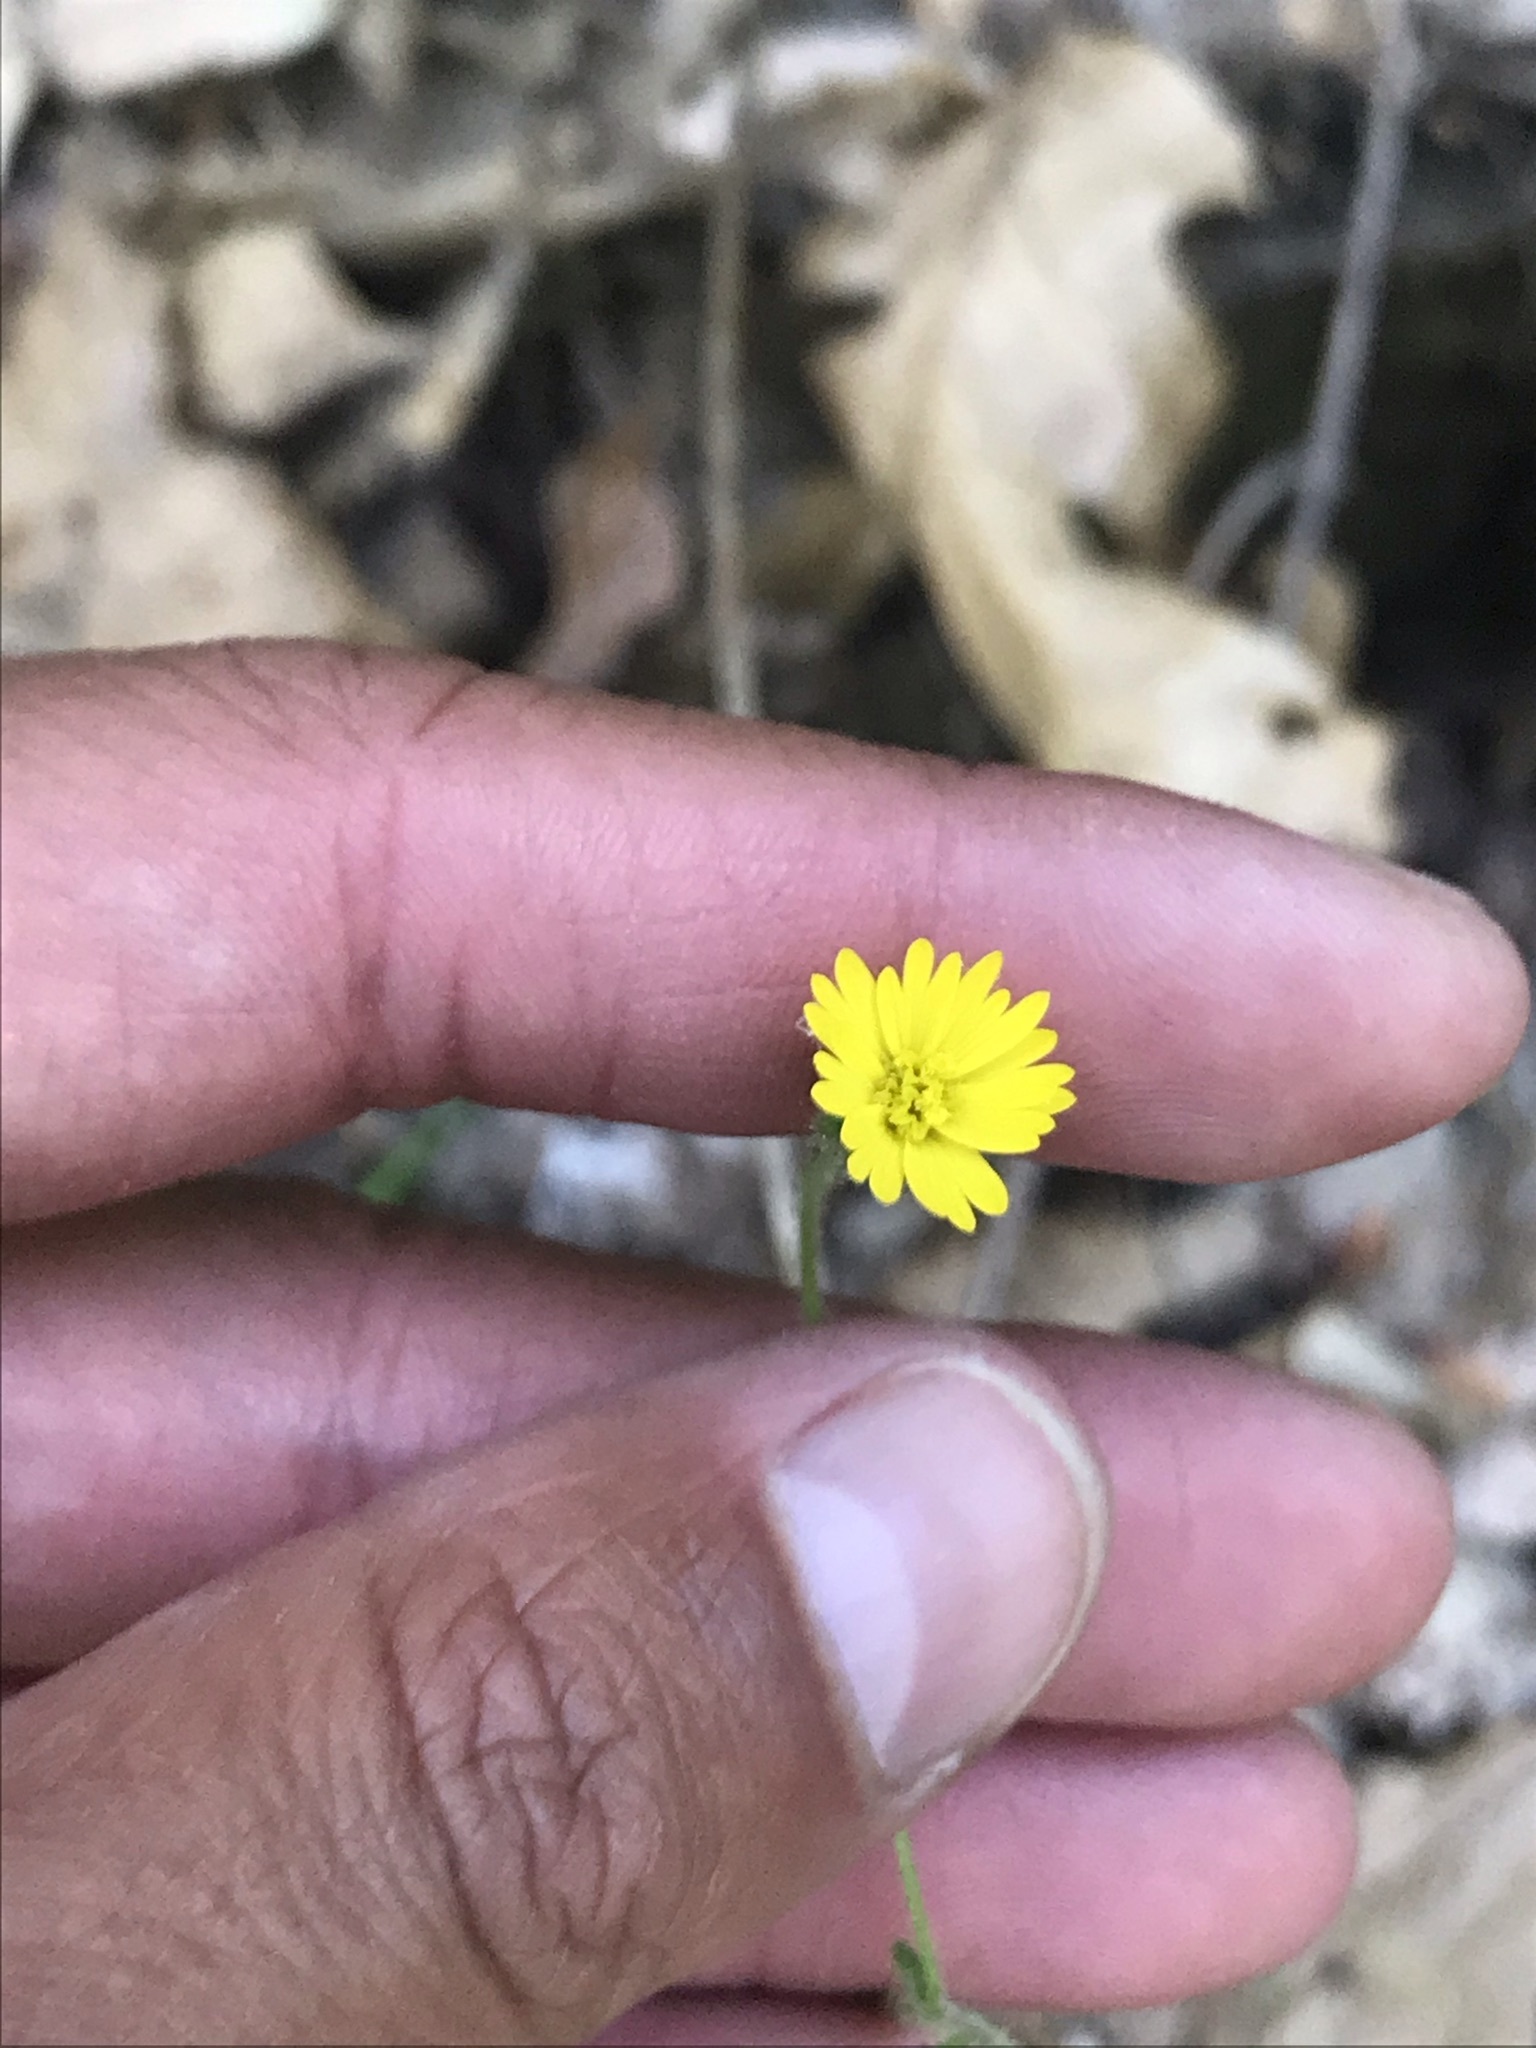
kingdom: Plantae
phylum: Tracheophyta
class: Magnoliopsida
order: Asterales
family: Asteraceae
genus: Anisocarpus
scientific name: Anisocarpus madioides
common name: Woodland madia
